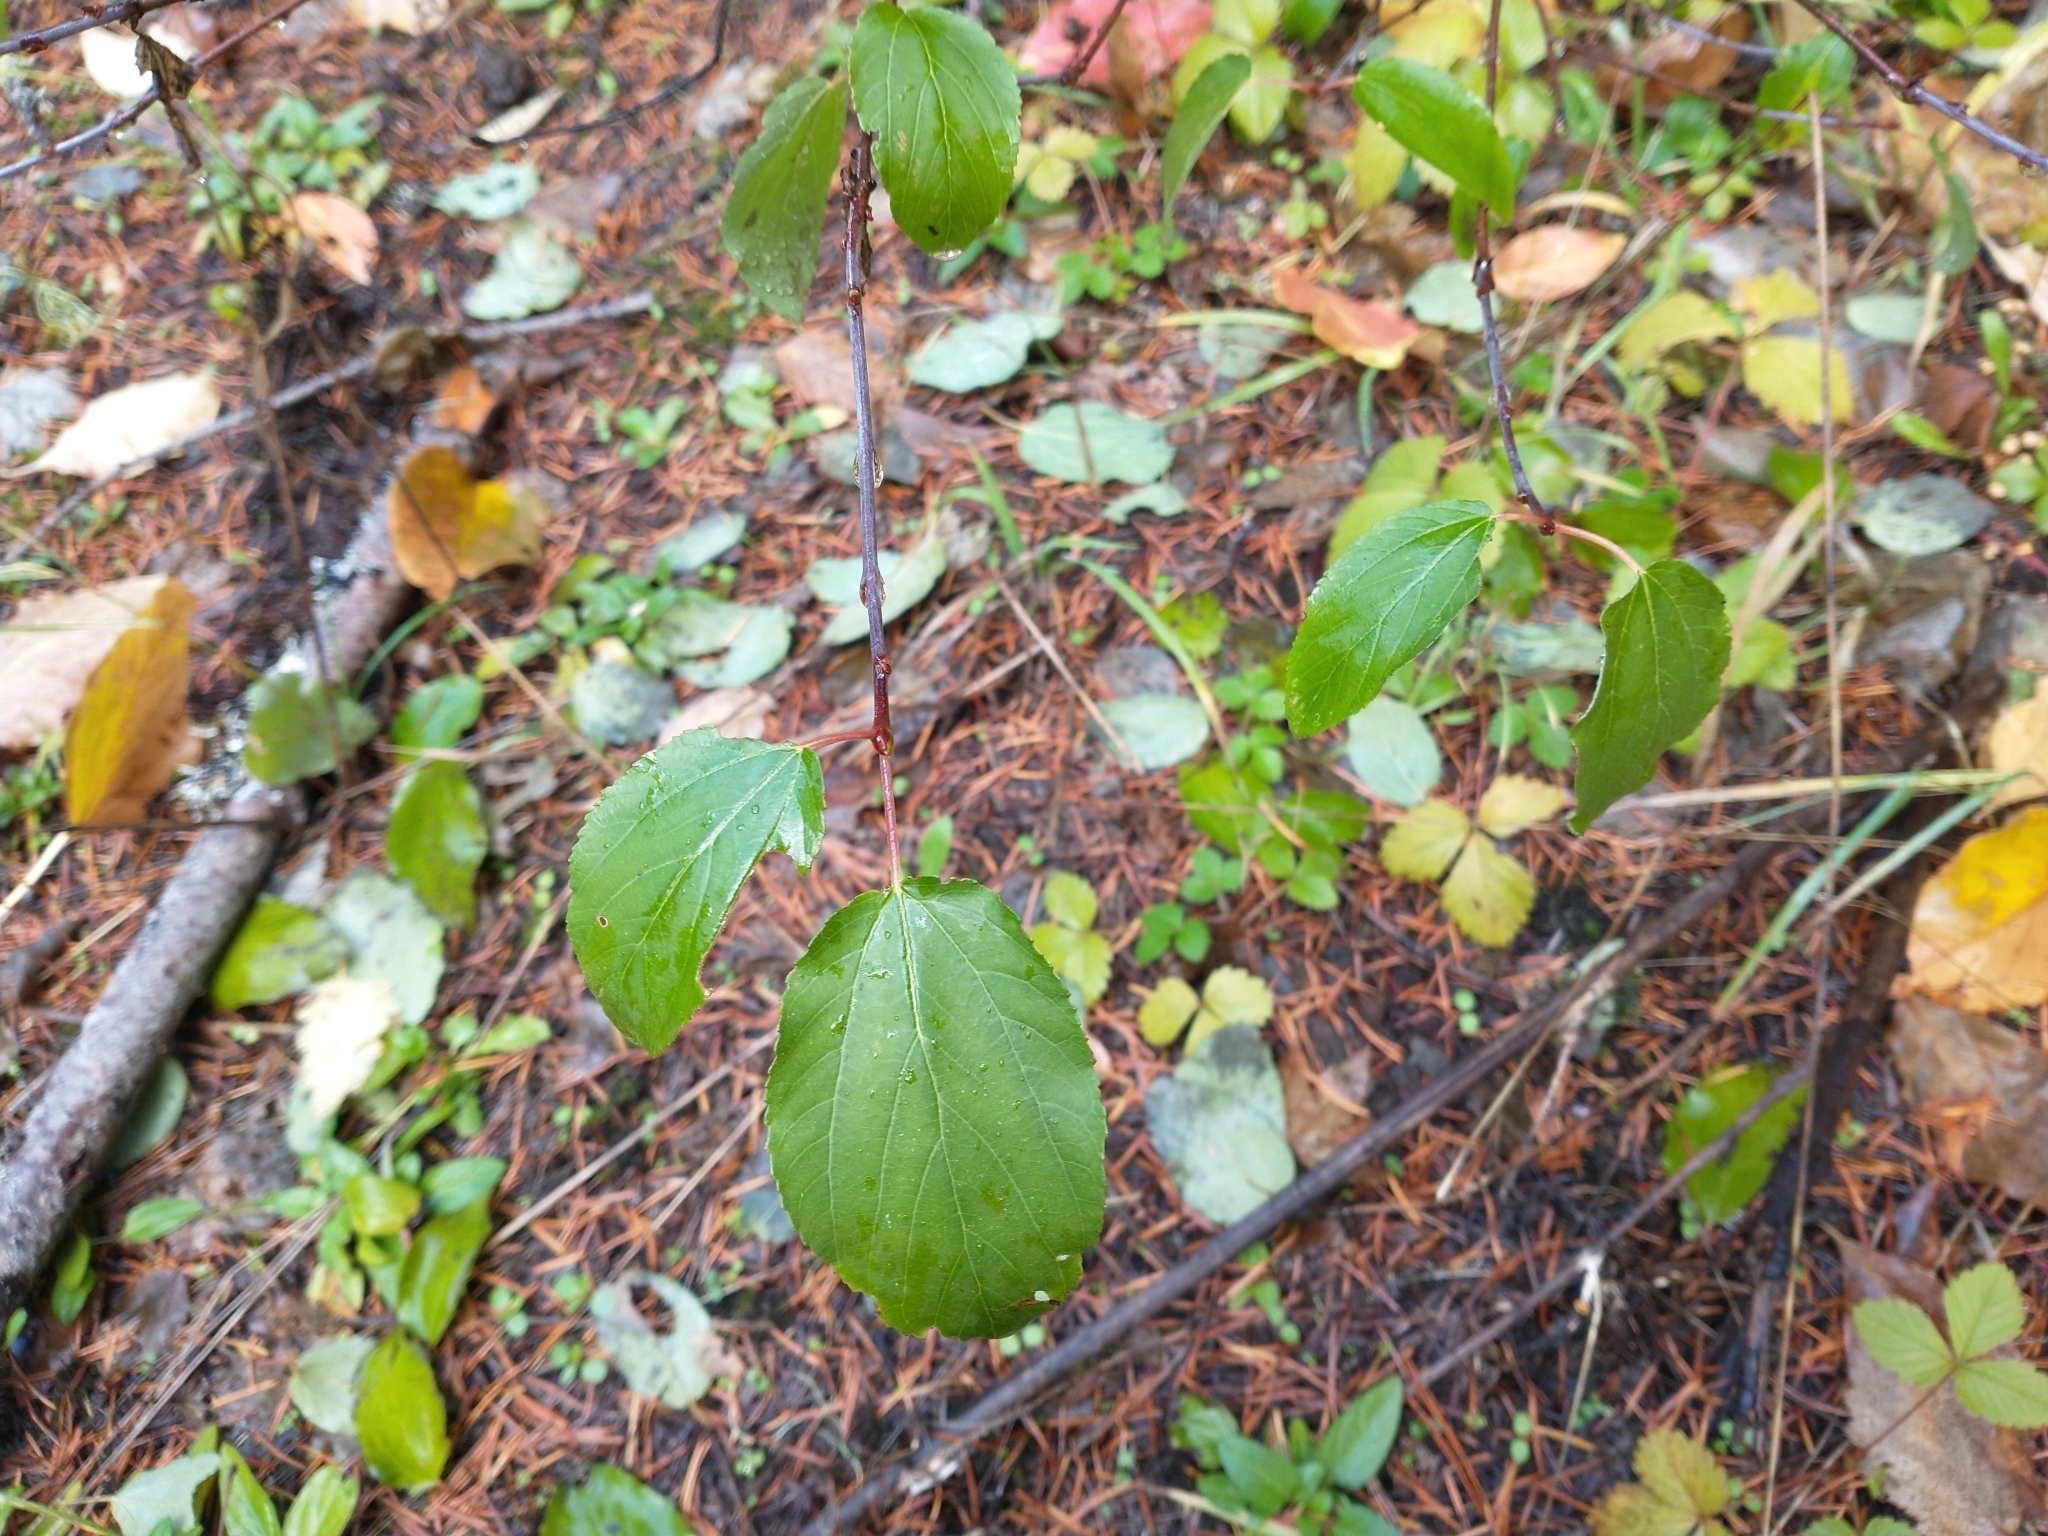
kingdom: Plantae
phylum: Tracheophyta
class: Magnoliopsida
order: Rosales
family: Rhamnaceae
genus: Ceanothus
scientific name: Ceanothus sanguineus
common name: Teatree
